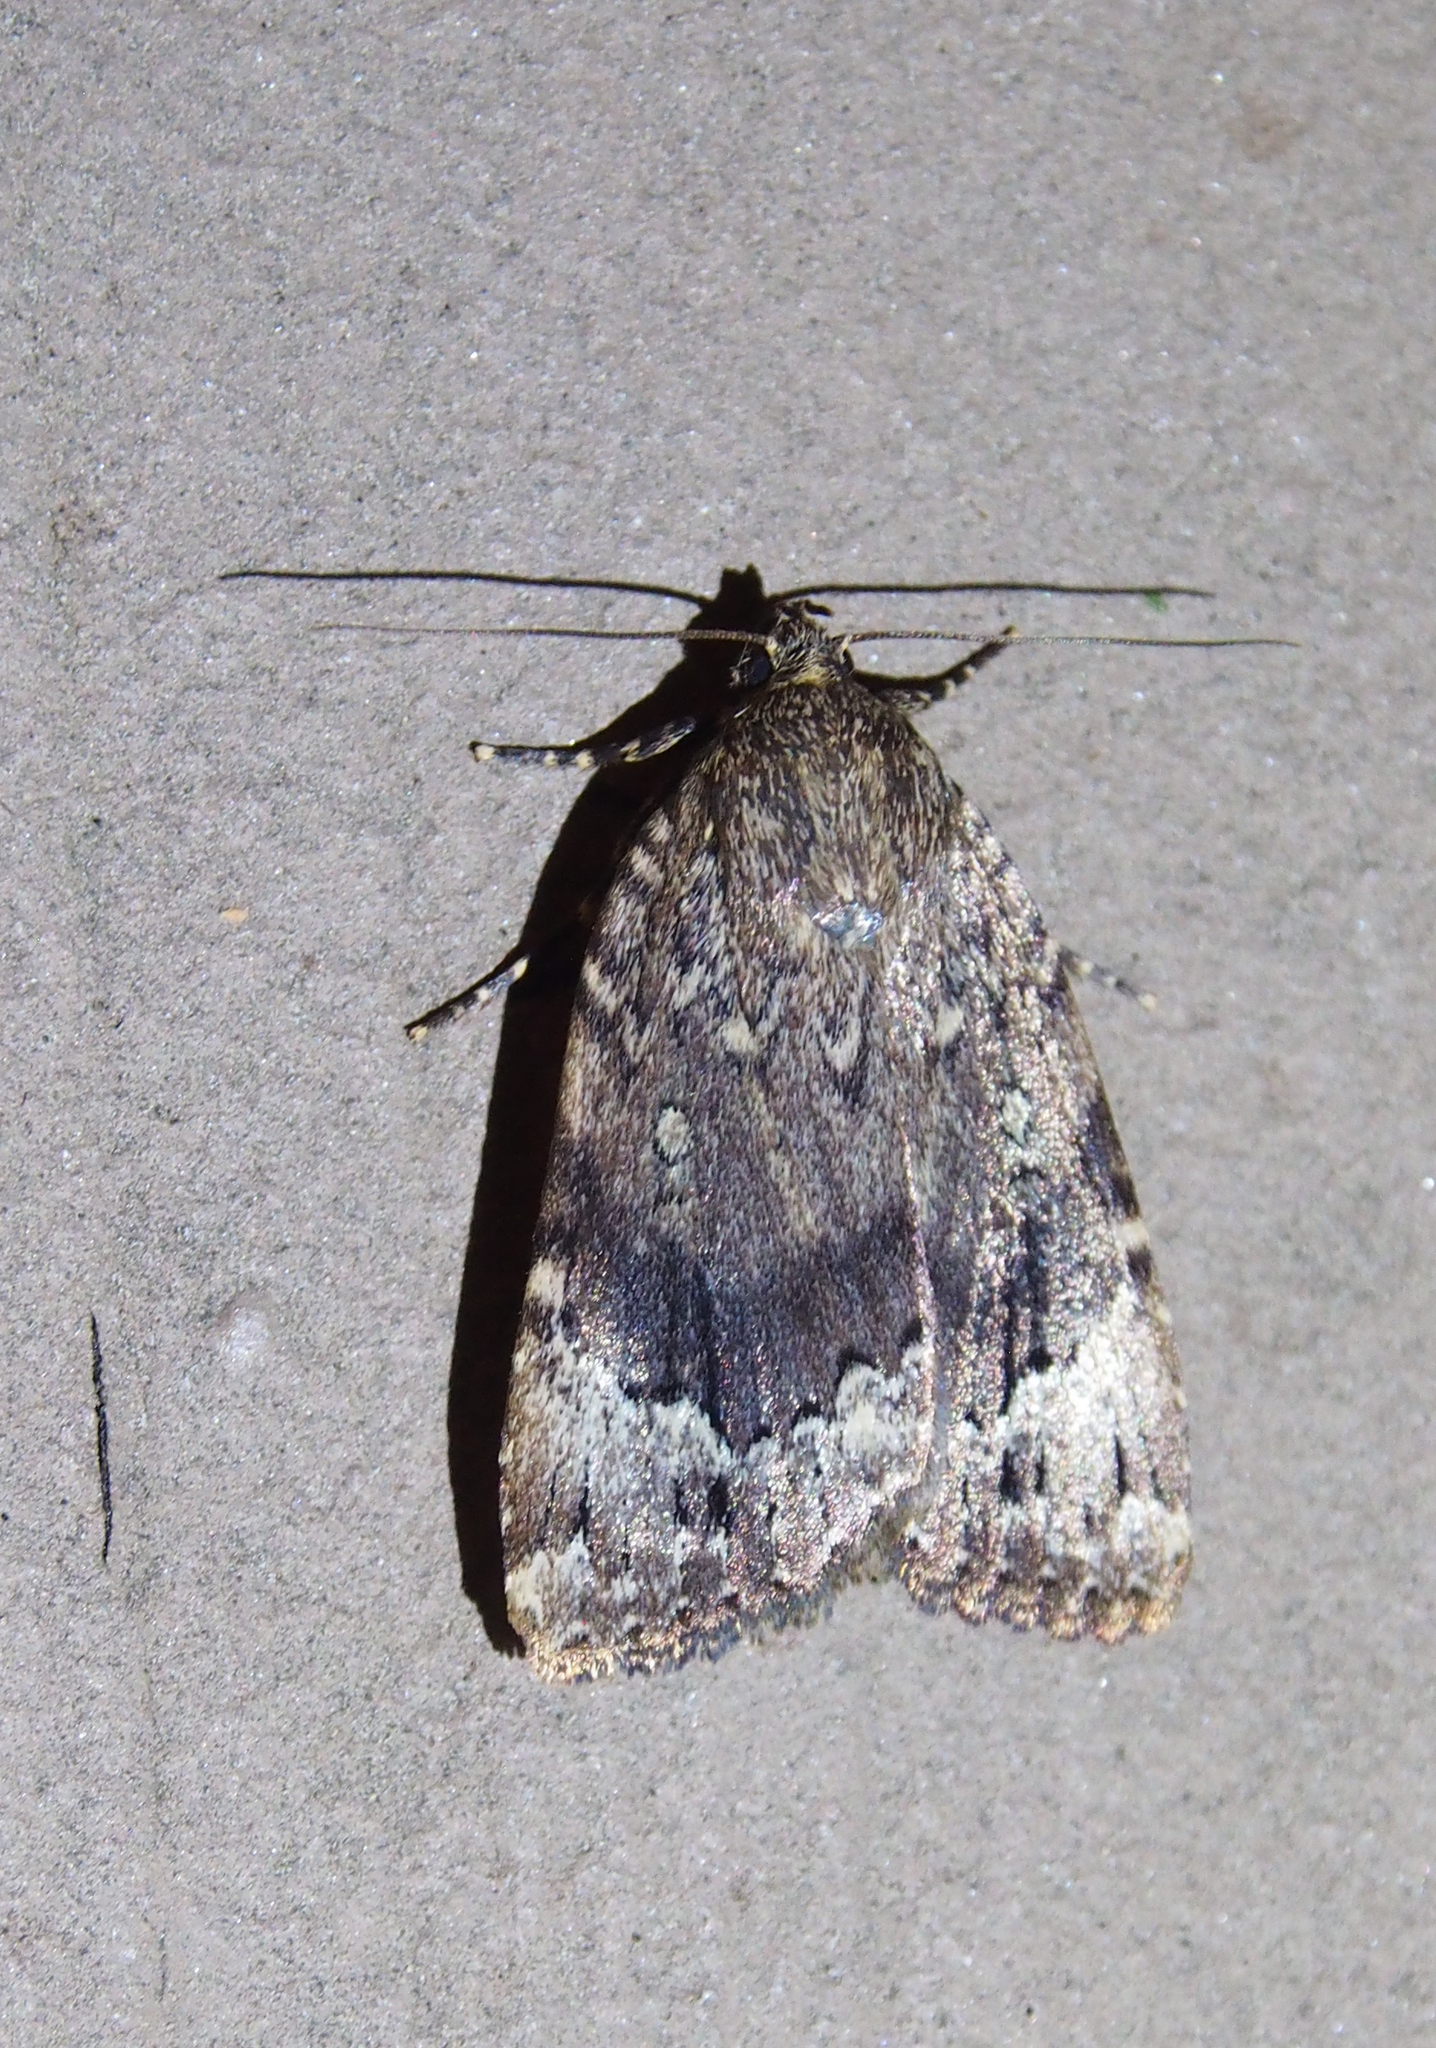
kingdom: Animalia
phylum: Arthropoda
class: Insecta
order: Lepidoptera
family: Noctuidae
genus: Amphipyra
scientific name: Amphipyra pyramidoides
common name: American copper underwing
